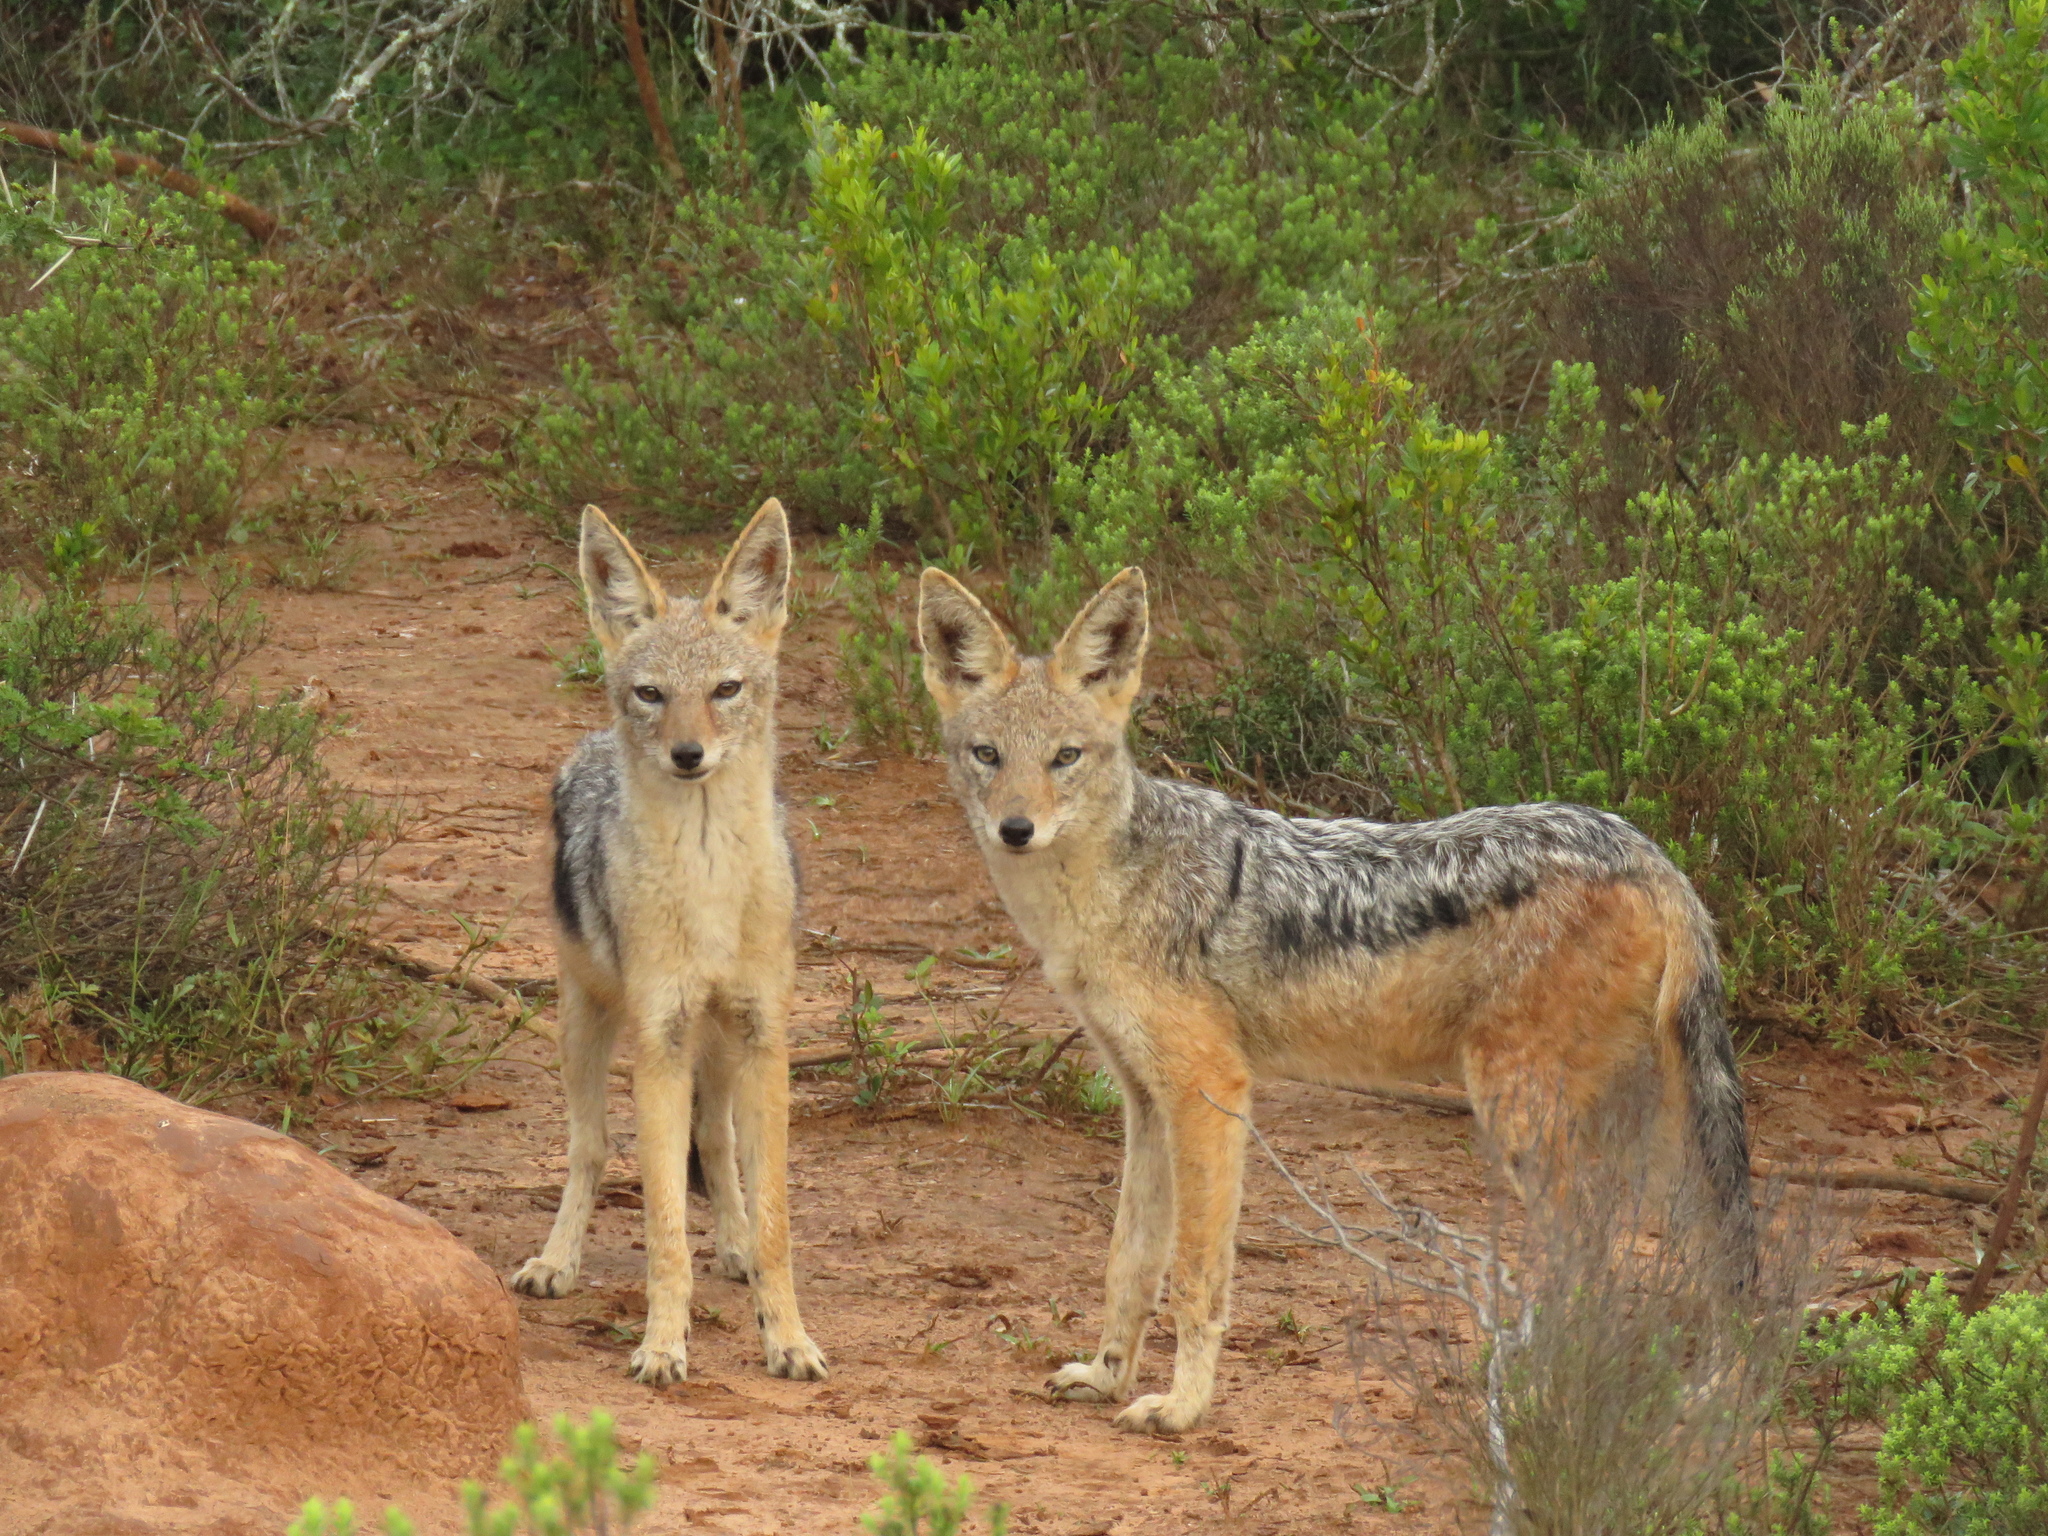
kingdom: Animalia
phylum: Chordata
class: Mammalia
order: Carnivora
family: Canidae
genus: Lupulella
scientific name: Lupulella
